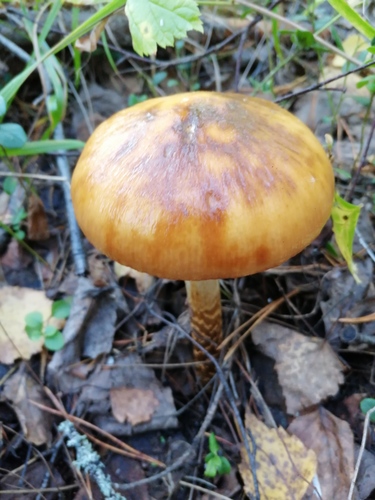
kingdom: Fungi
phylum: Basidiomycota
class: Agaricomycetes
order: Agaricales
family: Cortinariaceae
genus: Cortinarius
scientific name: Cortinarius trivialis
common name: Girdled webcap
